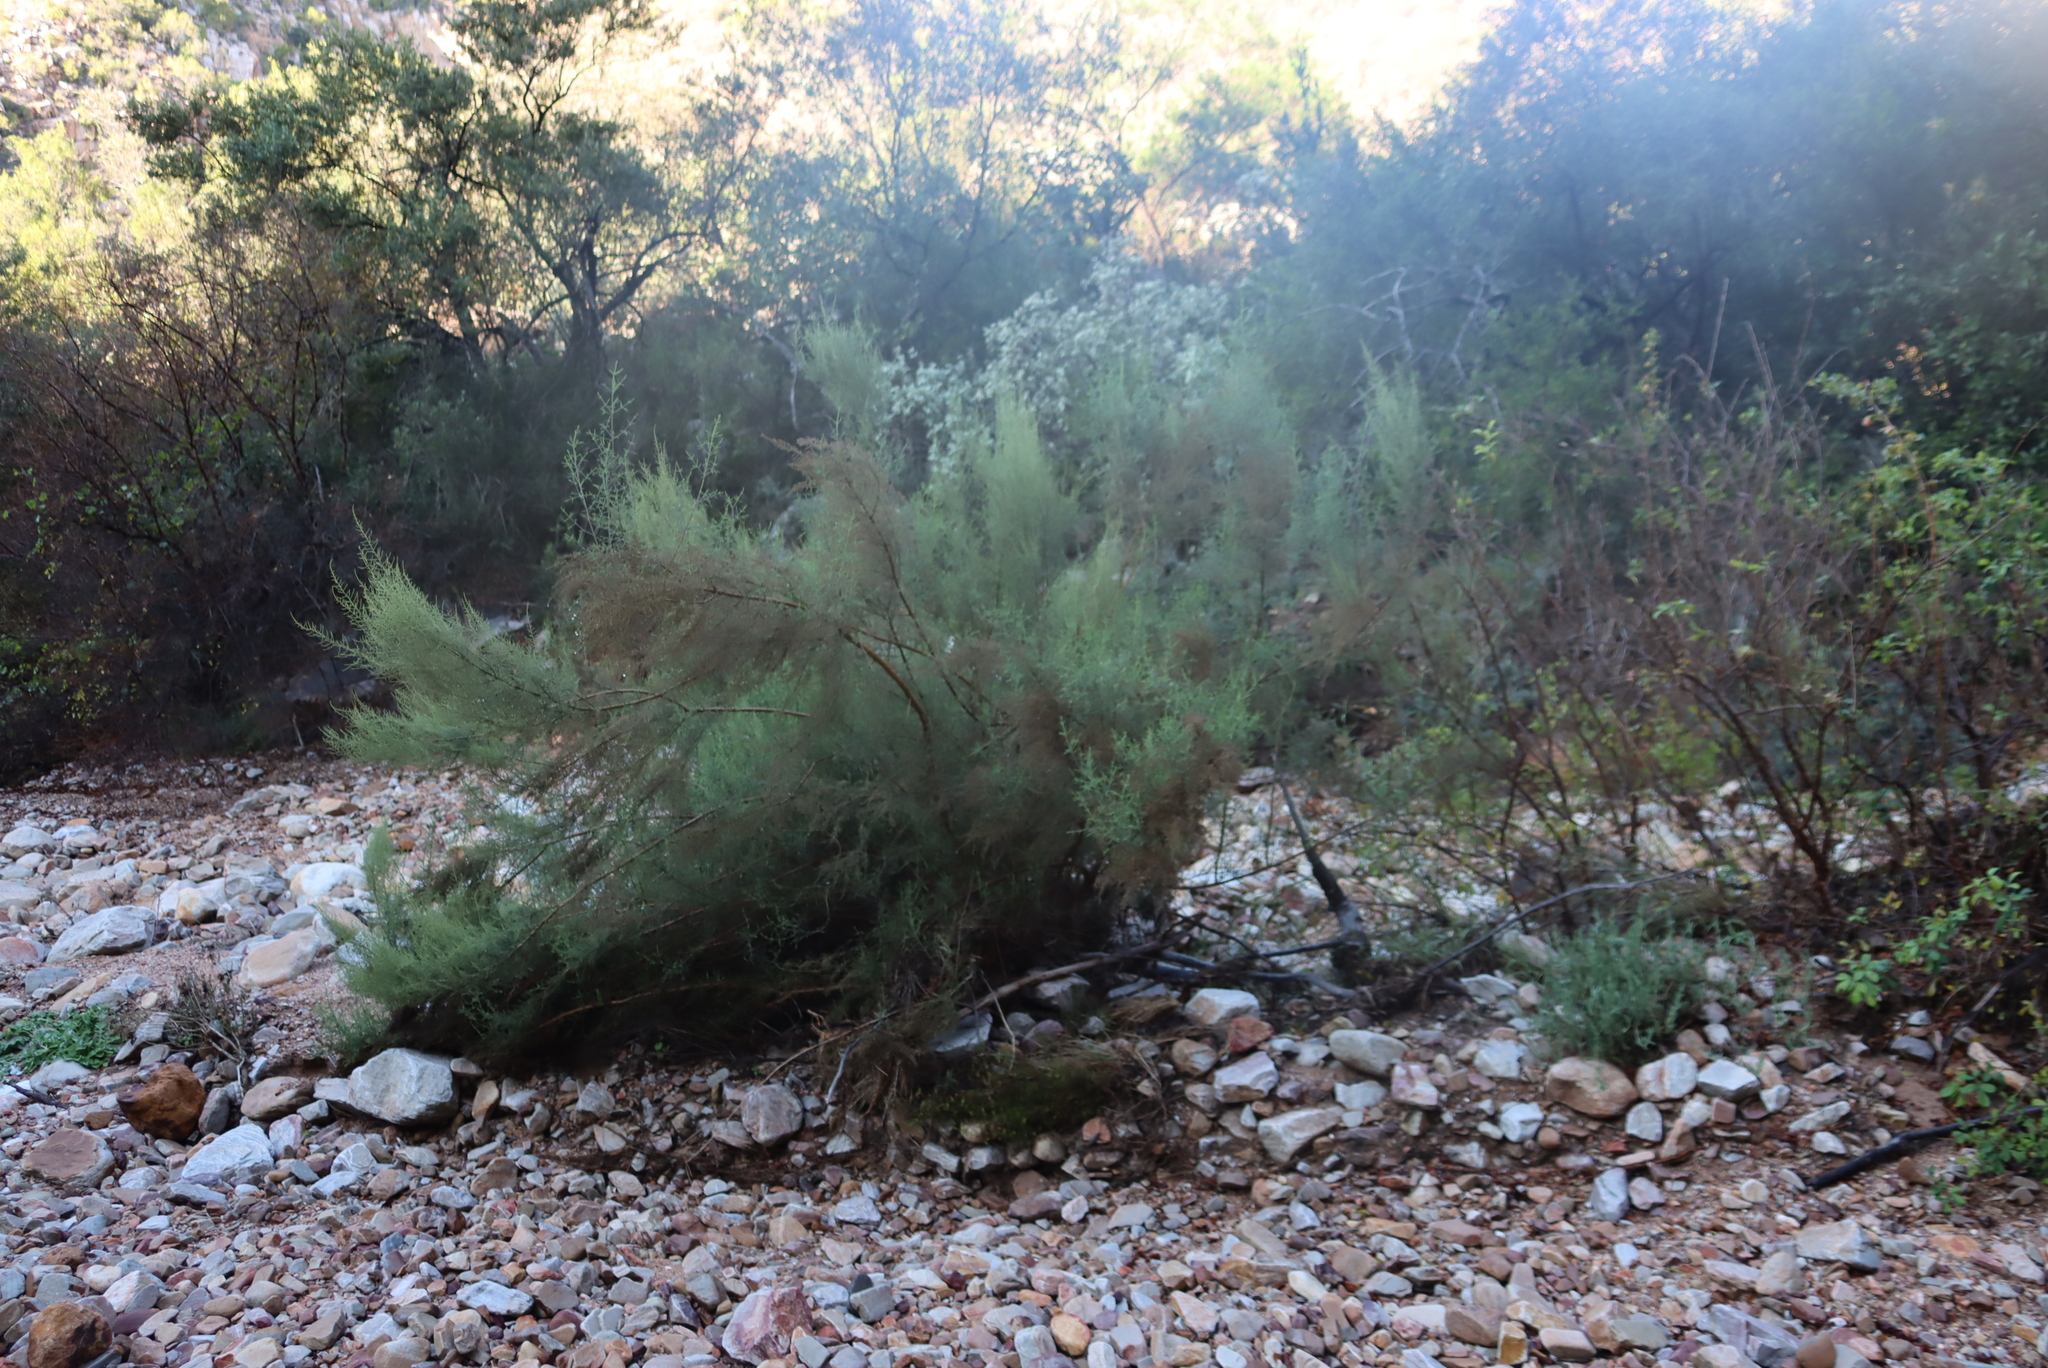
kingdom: Plantae
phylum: Tracheophyta
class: Magnoliopsida
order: Asterales
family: Asteraceae
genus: Dicerothamnus
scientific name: Dicerothamnus rhinocerotis
